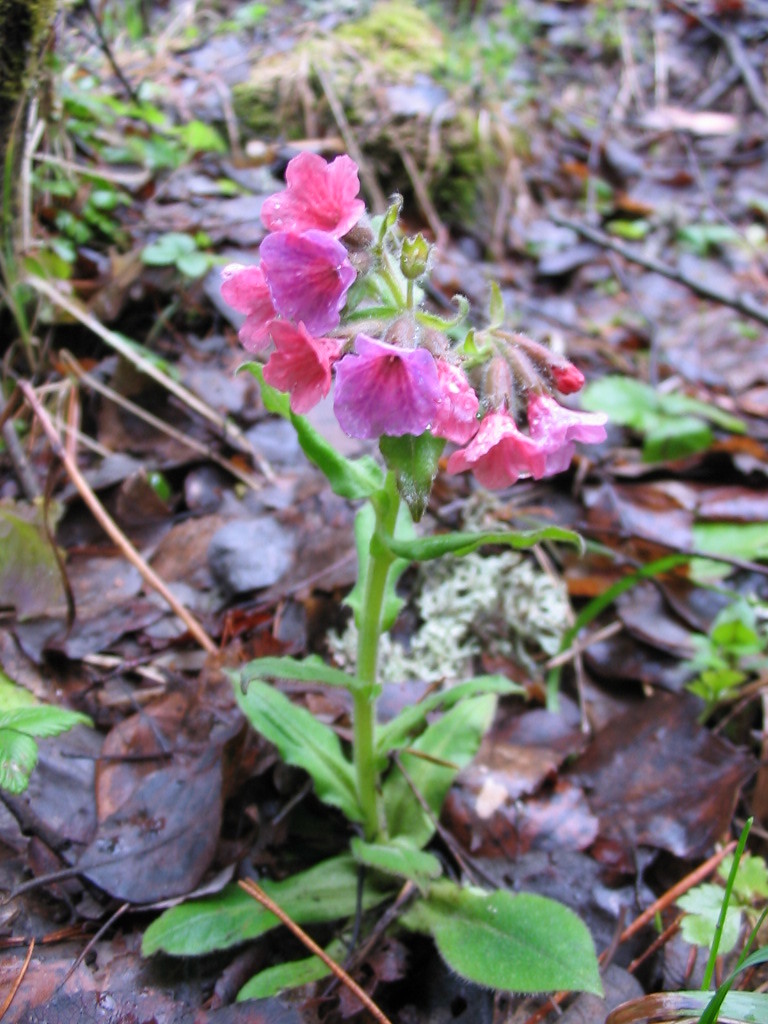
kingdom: Plantae
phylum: Tracheophyta
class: Magnoliopsida
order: Boraginales
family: Boraginaceae
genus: Pulmonaria
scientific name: Pulmonaria rubra
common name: Red lungwort
